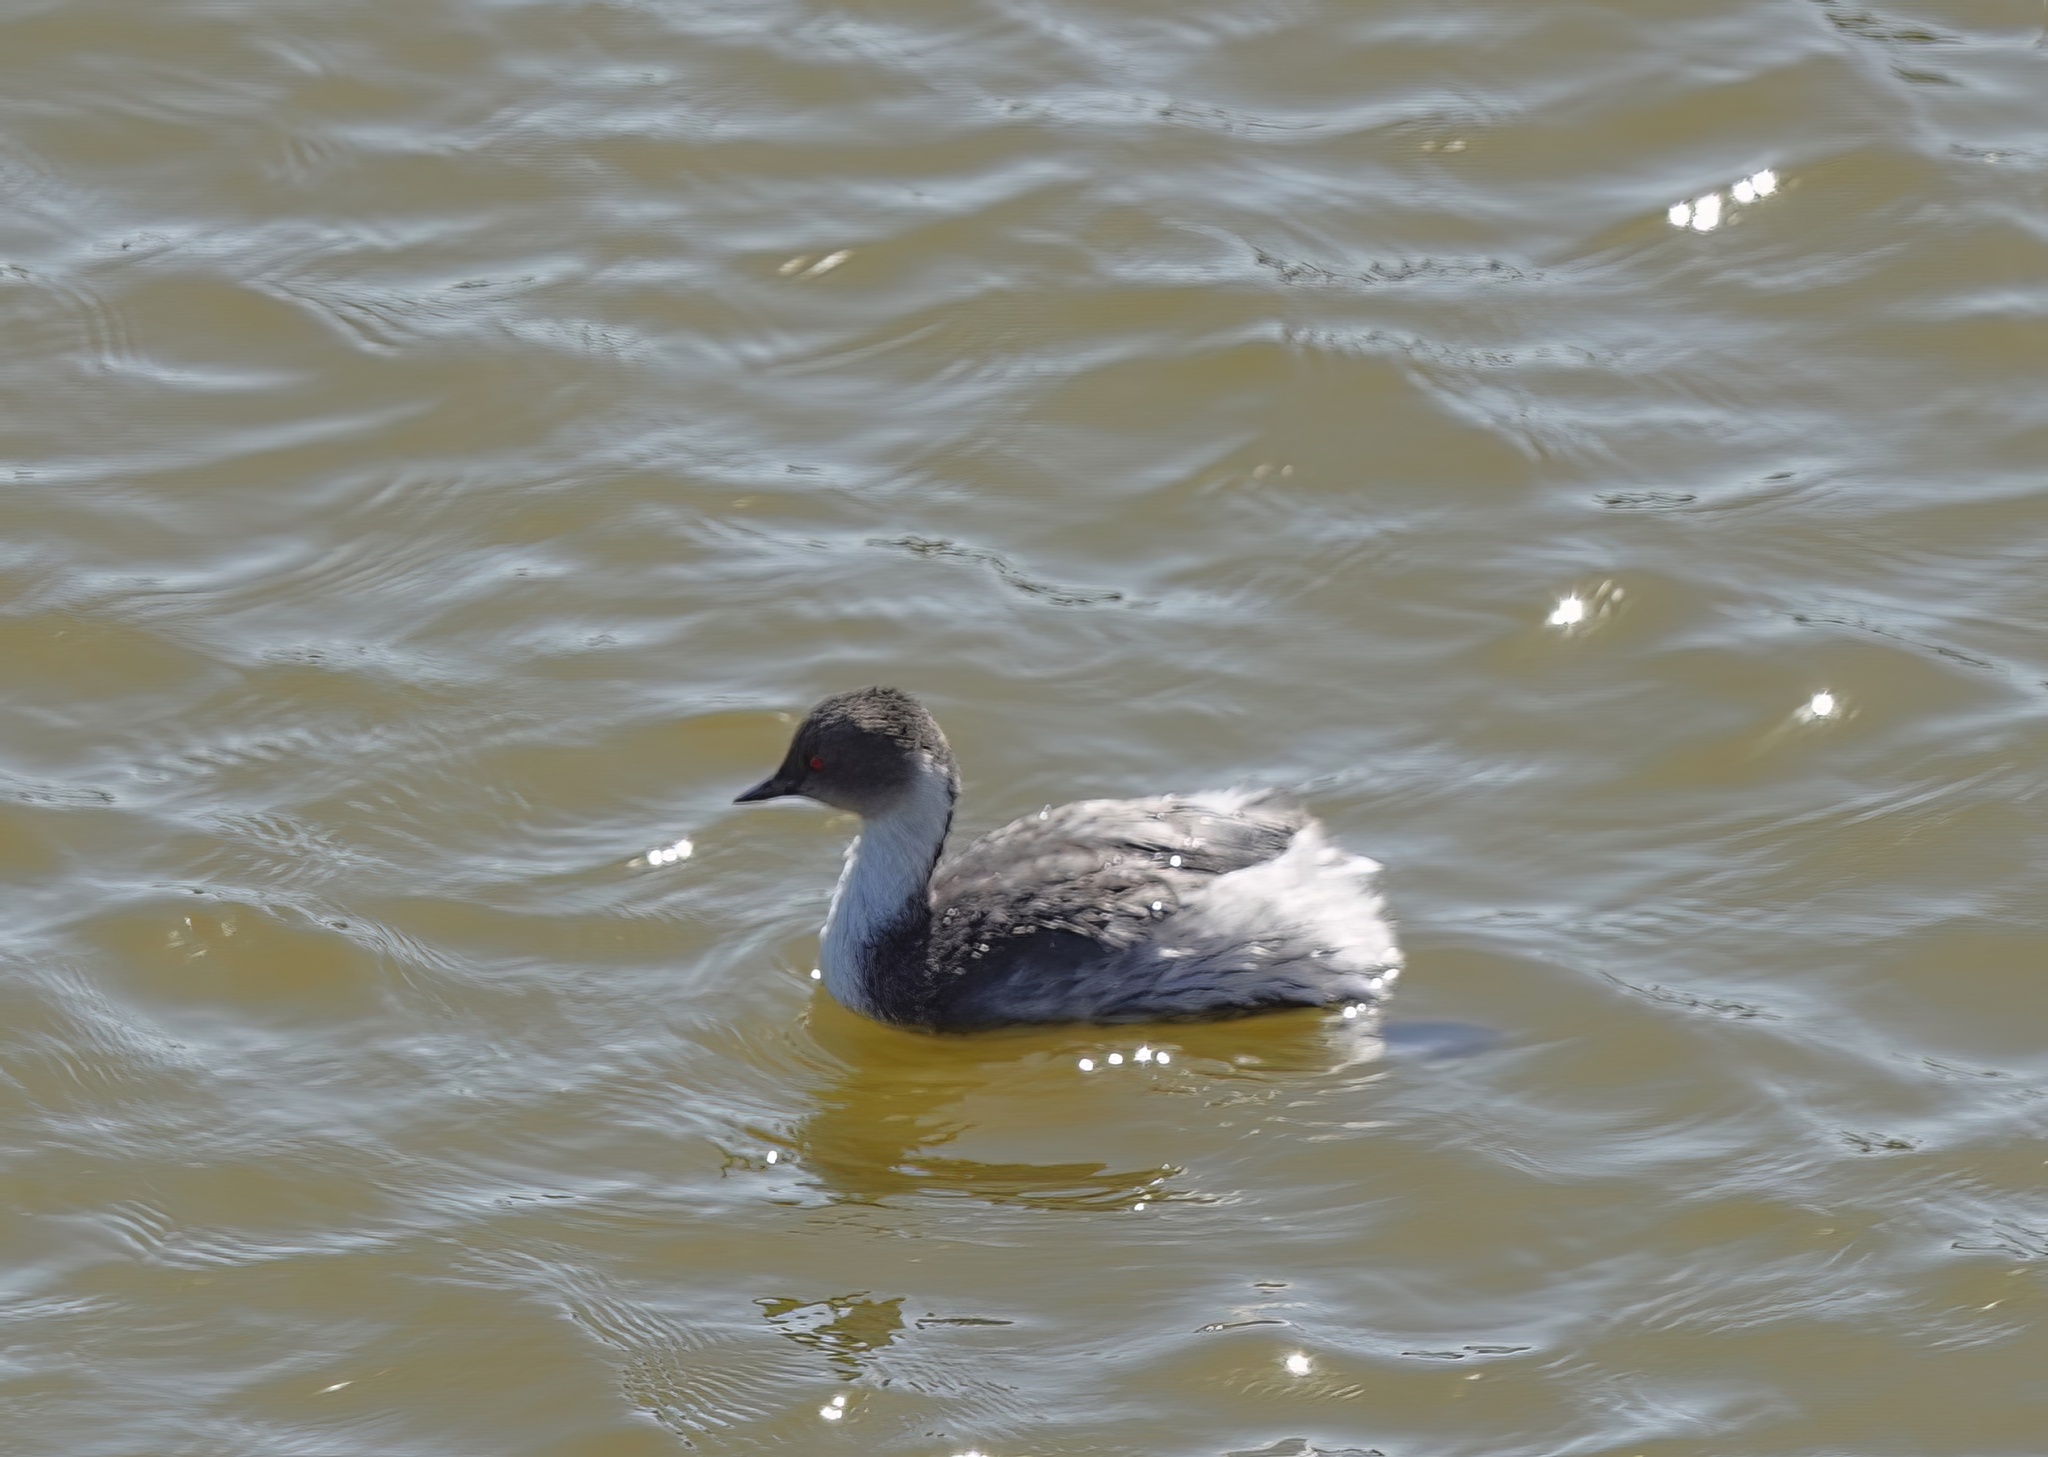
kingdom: Animalia
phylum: Chordata
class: Aves
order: Podicipediformes
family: Podicipedidae
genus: Podiceps
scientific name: Podiceps occipitalis
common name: Silvery grebe
